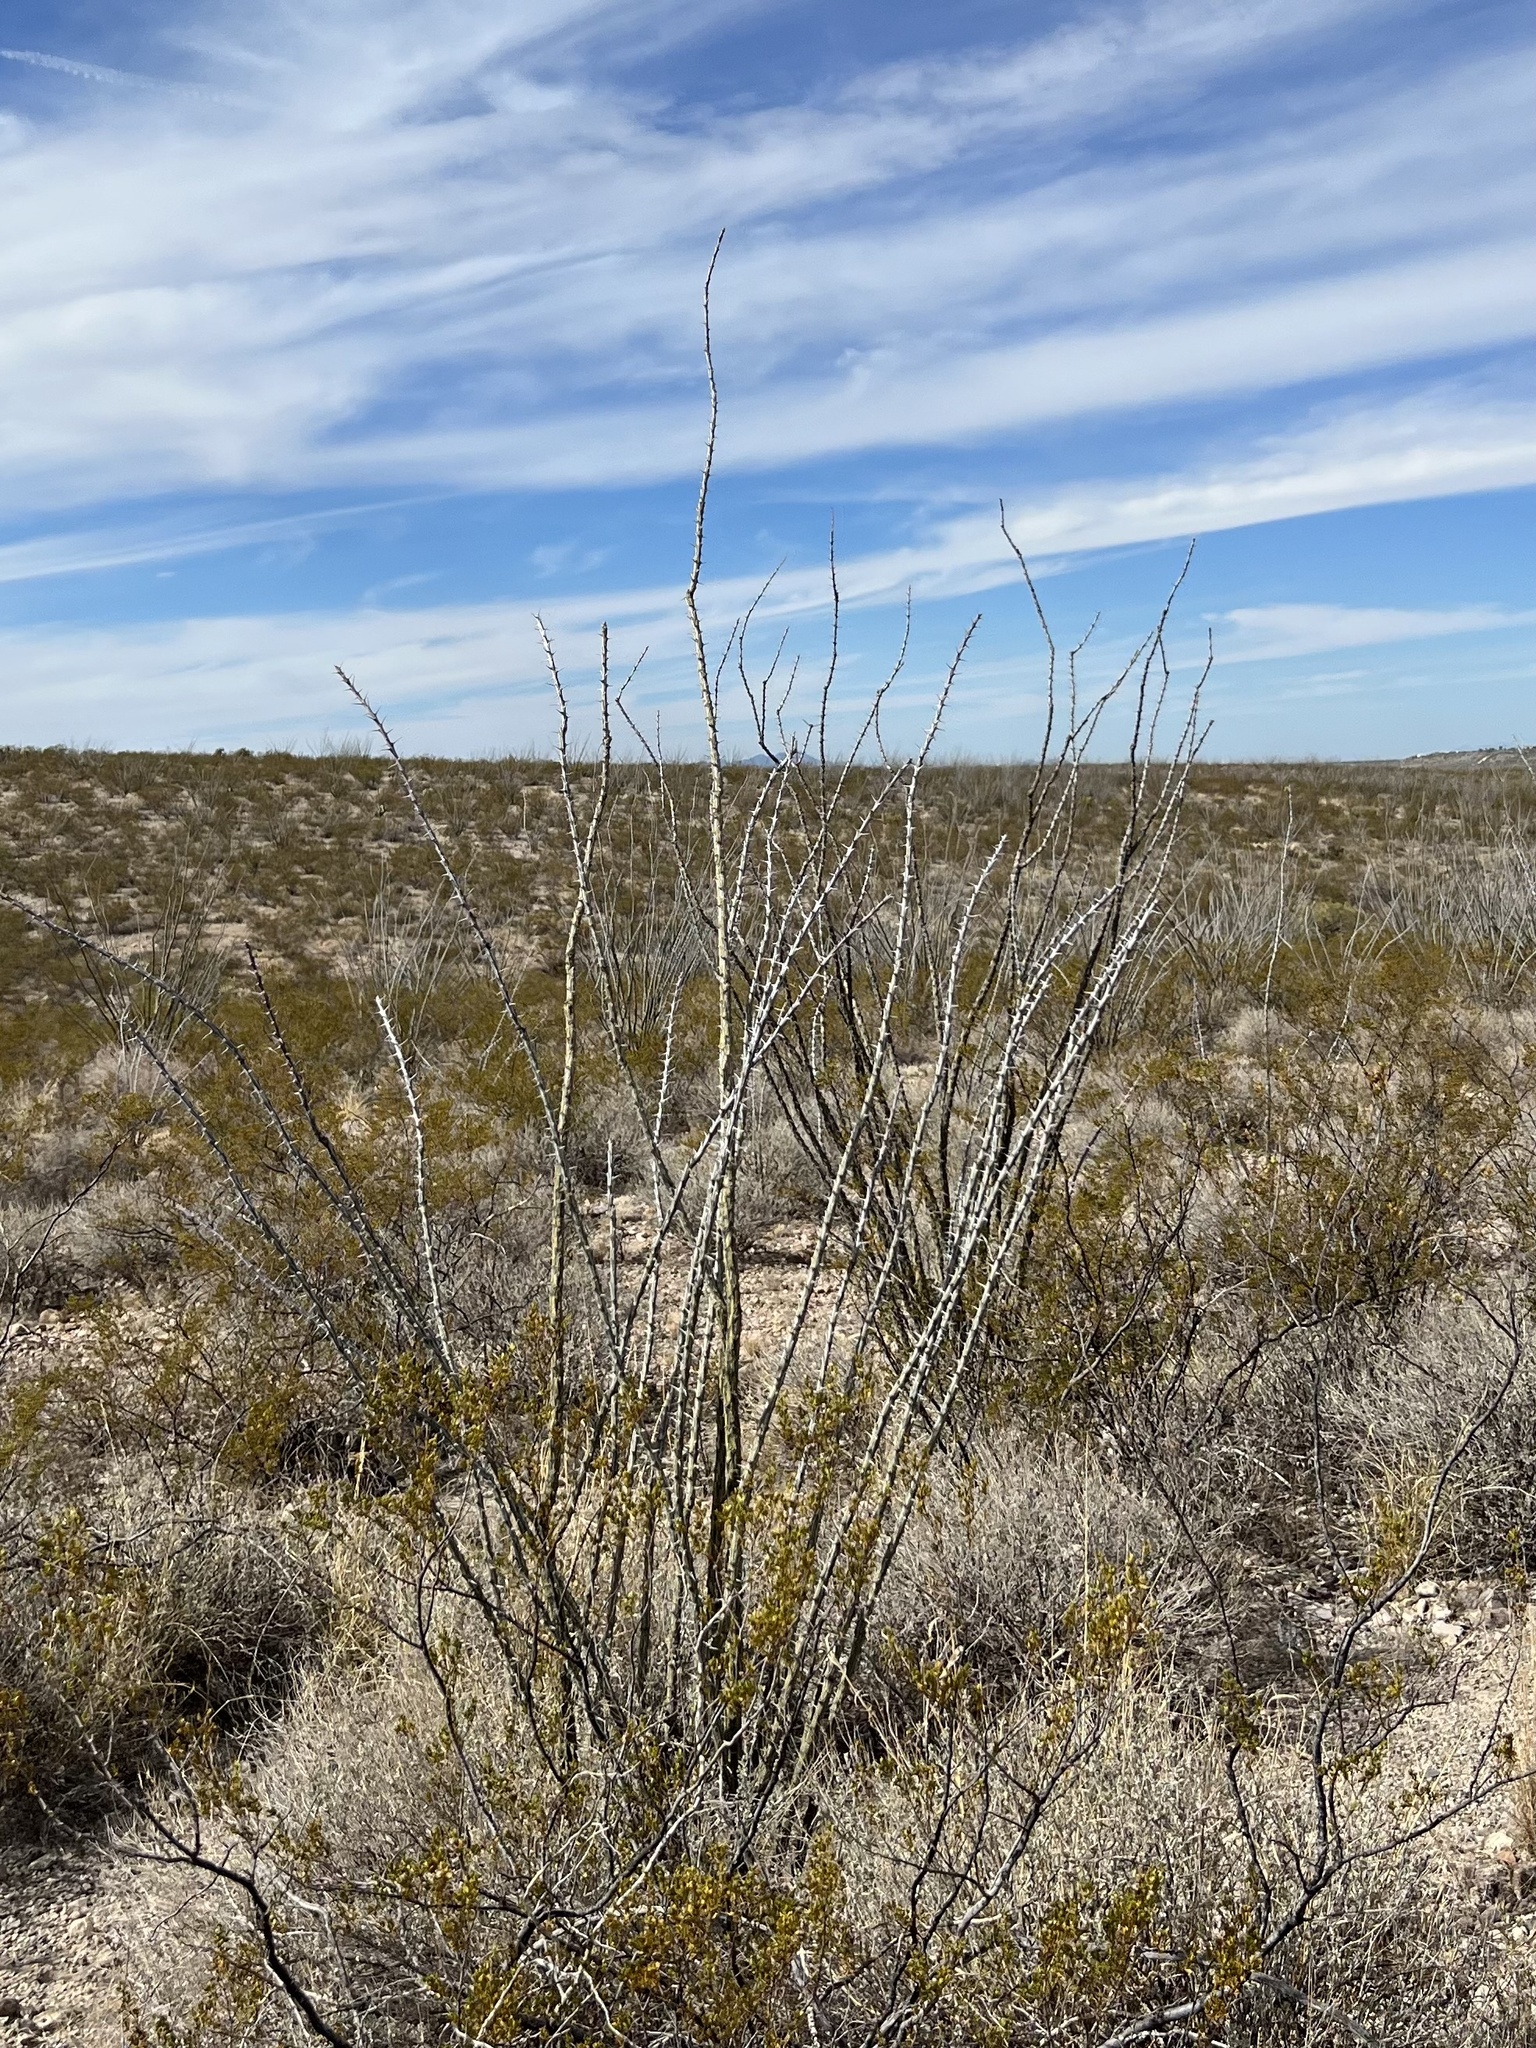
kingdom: Plantae
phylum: Tracheophyta
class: Magnoliopsida
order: Ericales
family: Fouquieriaceae
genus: Fouquieria
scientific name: Fouquieria splendens
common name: Vine-cactus
